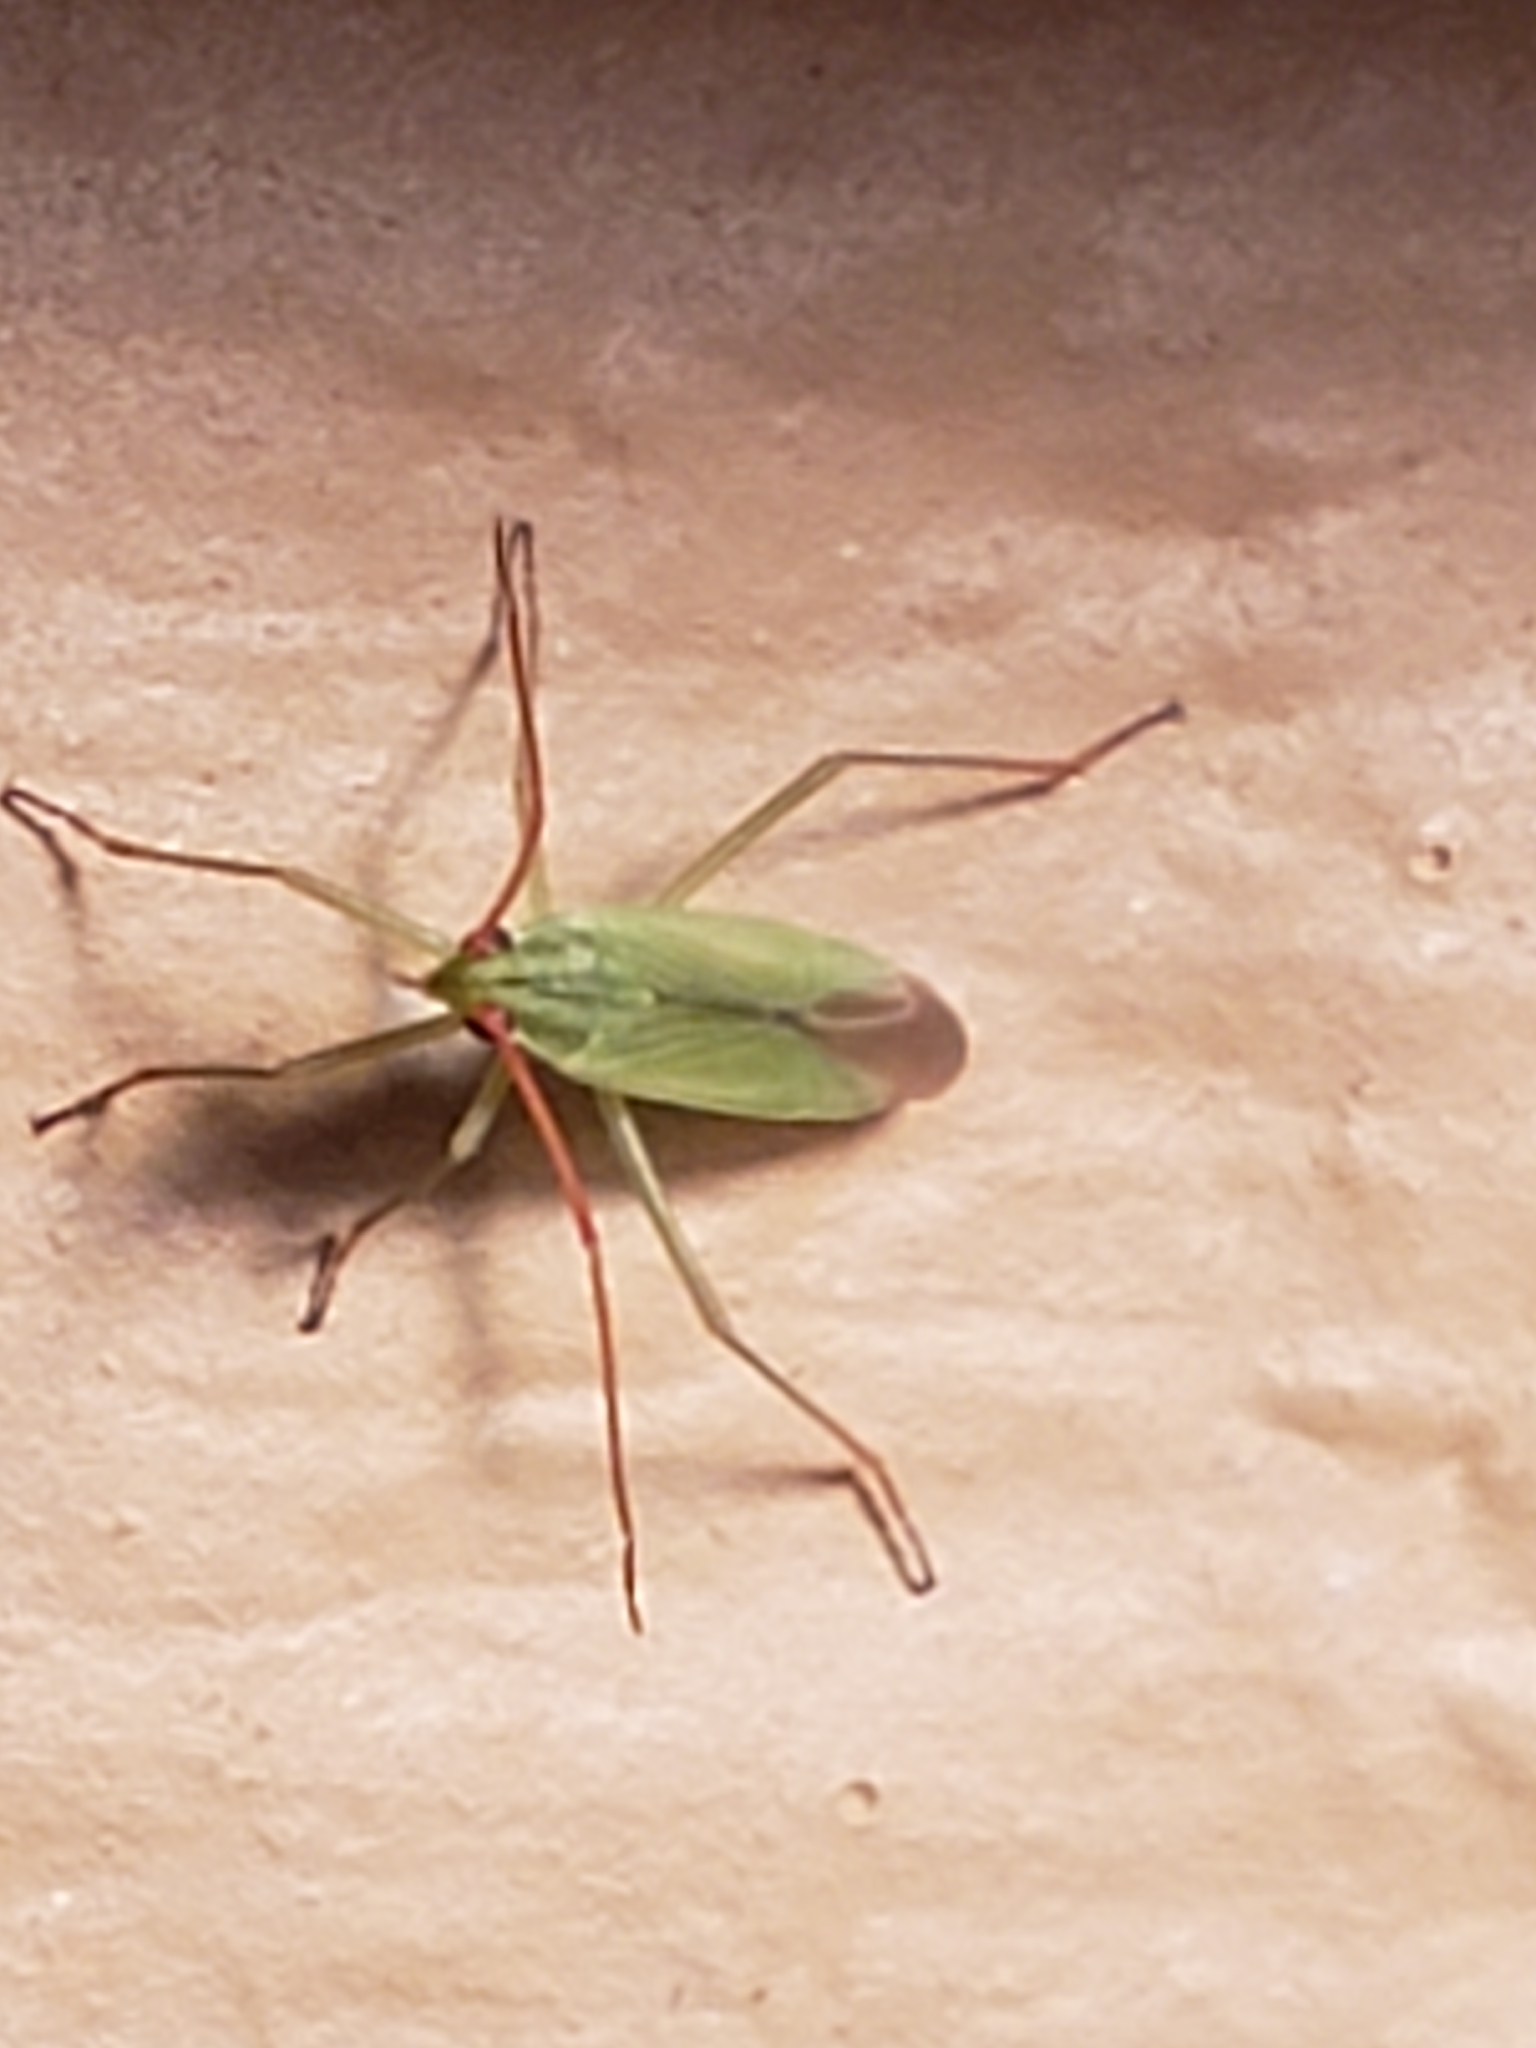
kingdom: Animalia
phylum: Arthropoda
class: Insecta
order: Hemiptera
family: Miridae
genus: Trigonotylus
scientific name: Trigonotylus caelestialium
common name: Rice leaf bug
